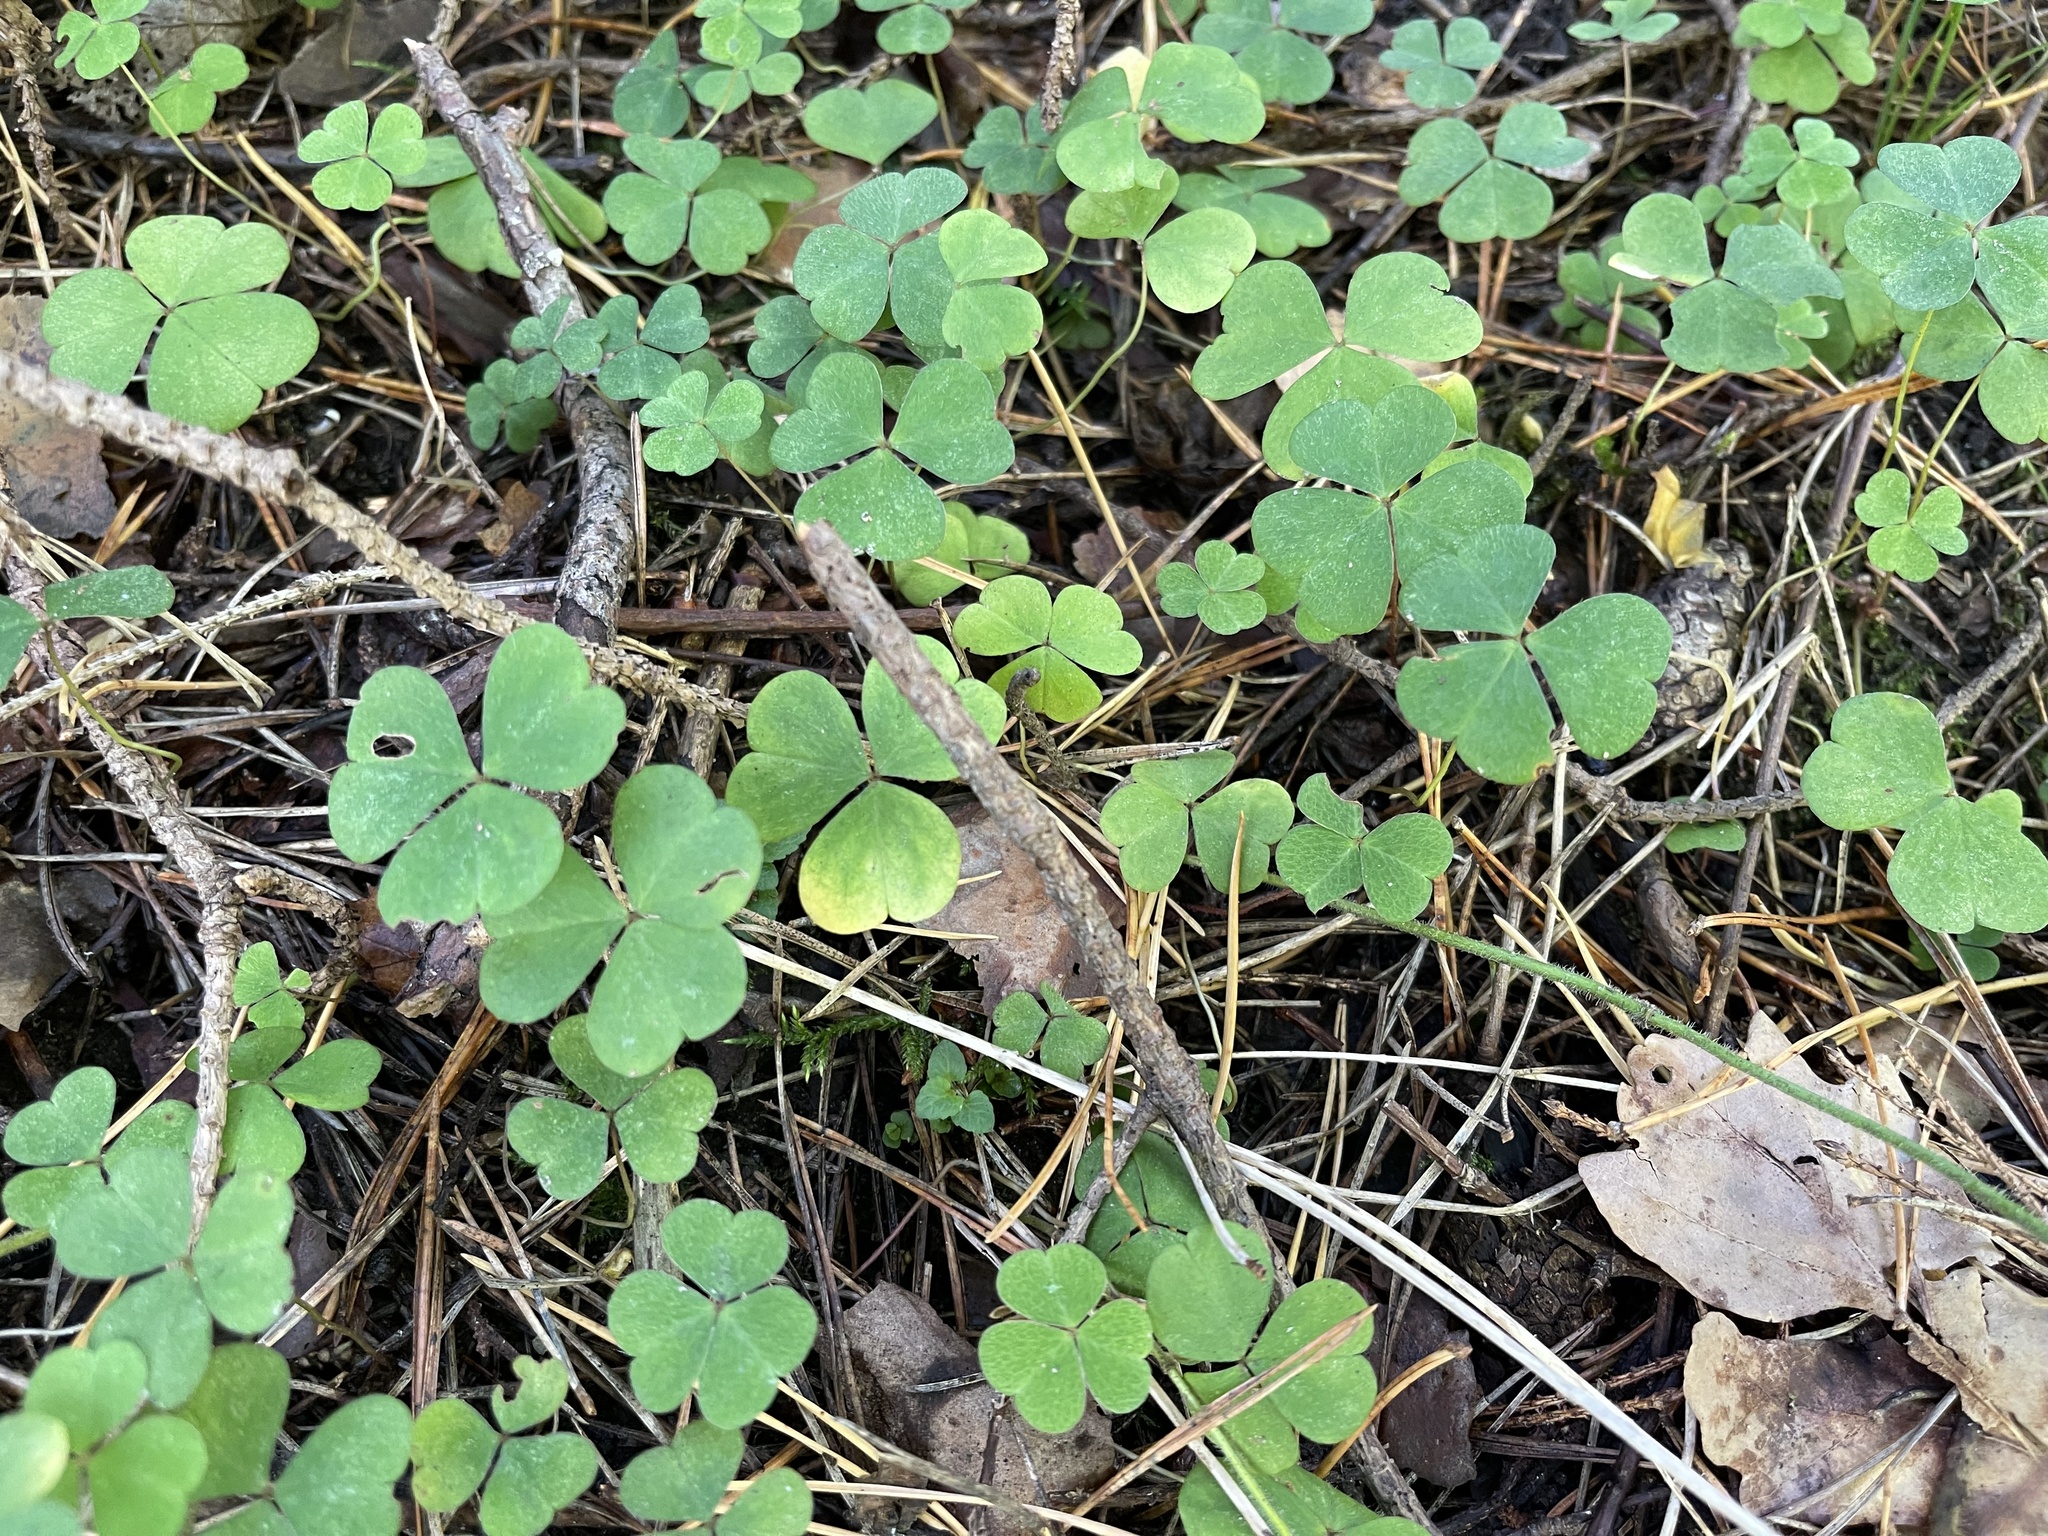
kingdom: Plantae
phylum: Tracheophyta
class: Magnoliopsida
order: Oxalidales
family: Oxalidaceae
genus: Oxalis
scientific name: Oxalis acetosella
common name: Wood-sorrel
